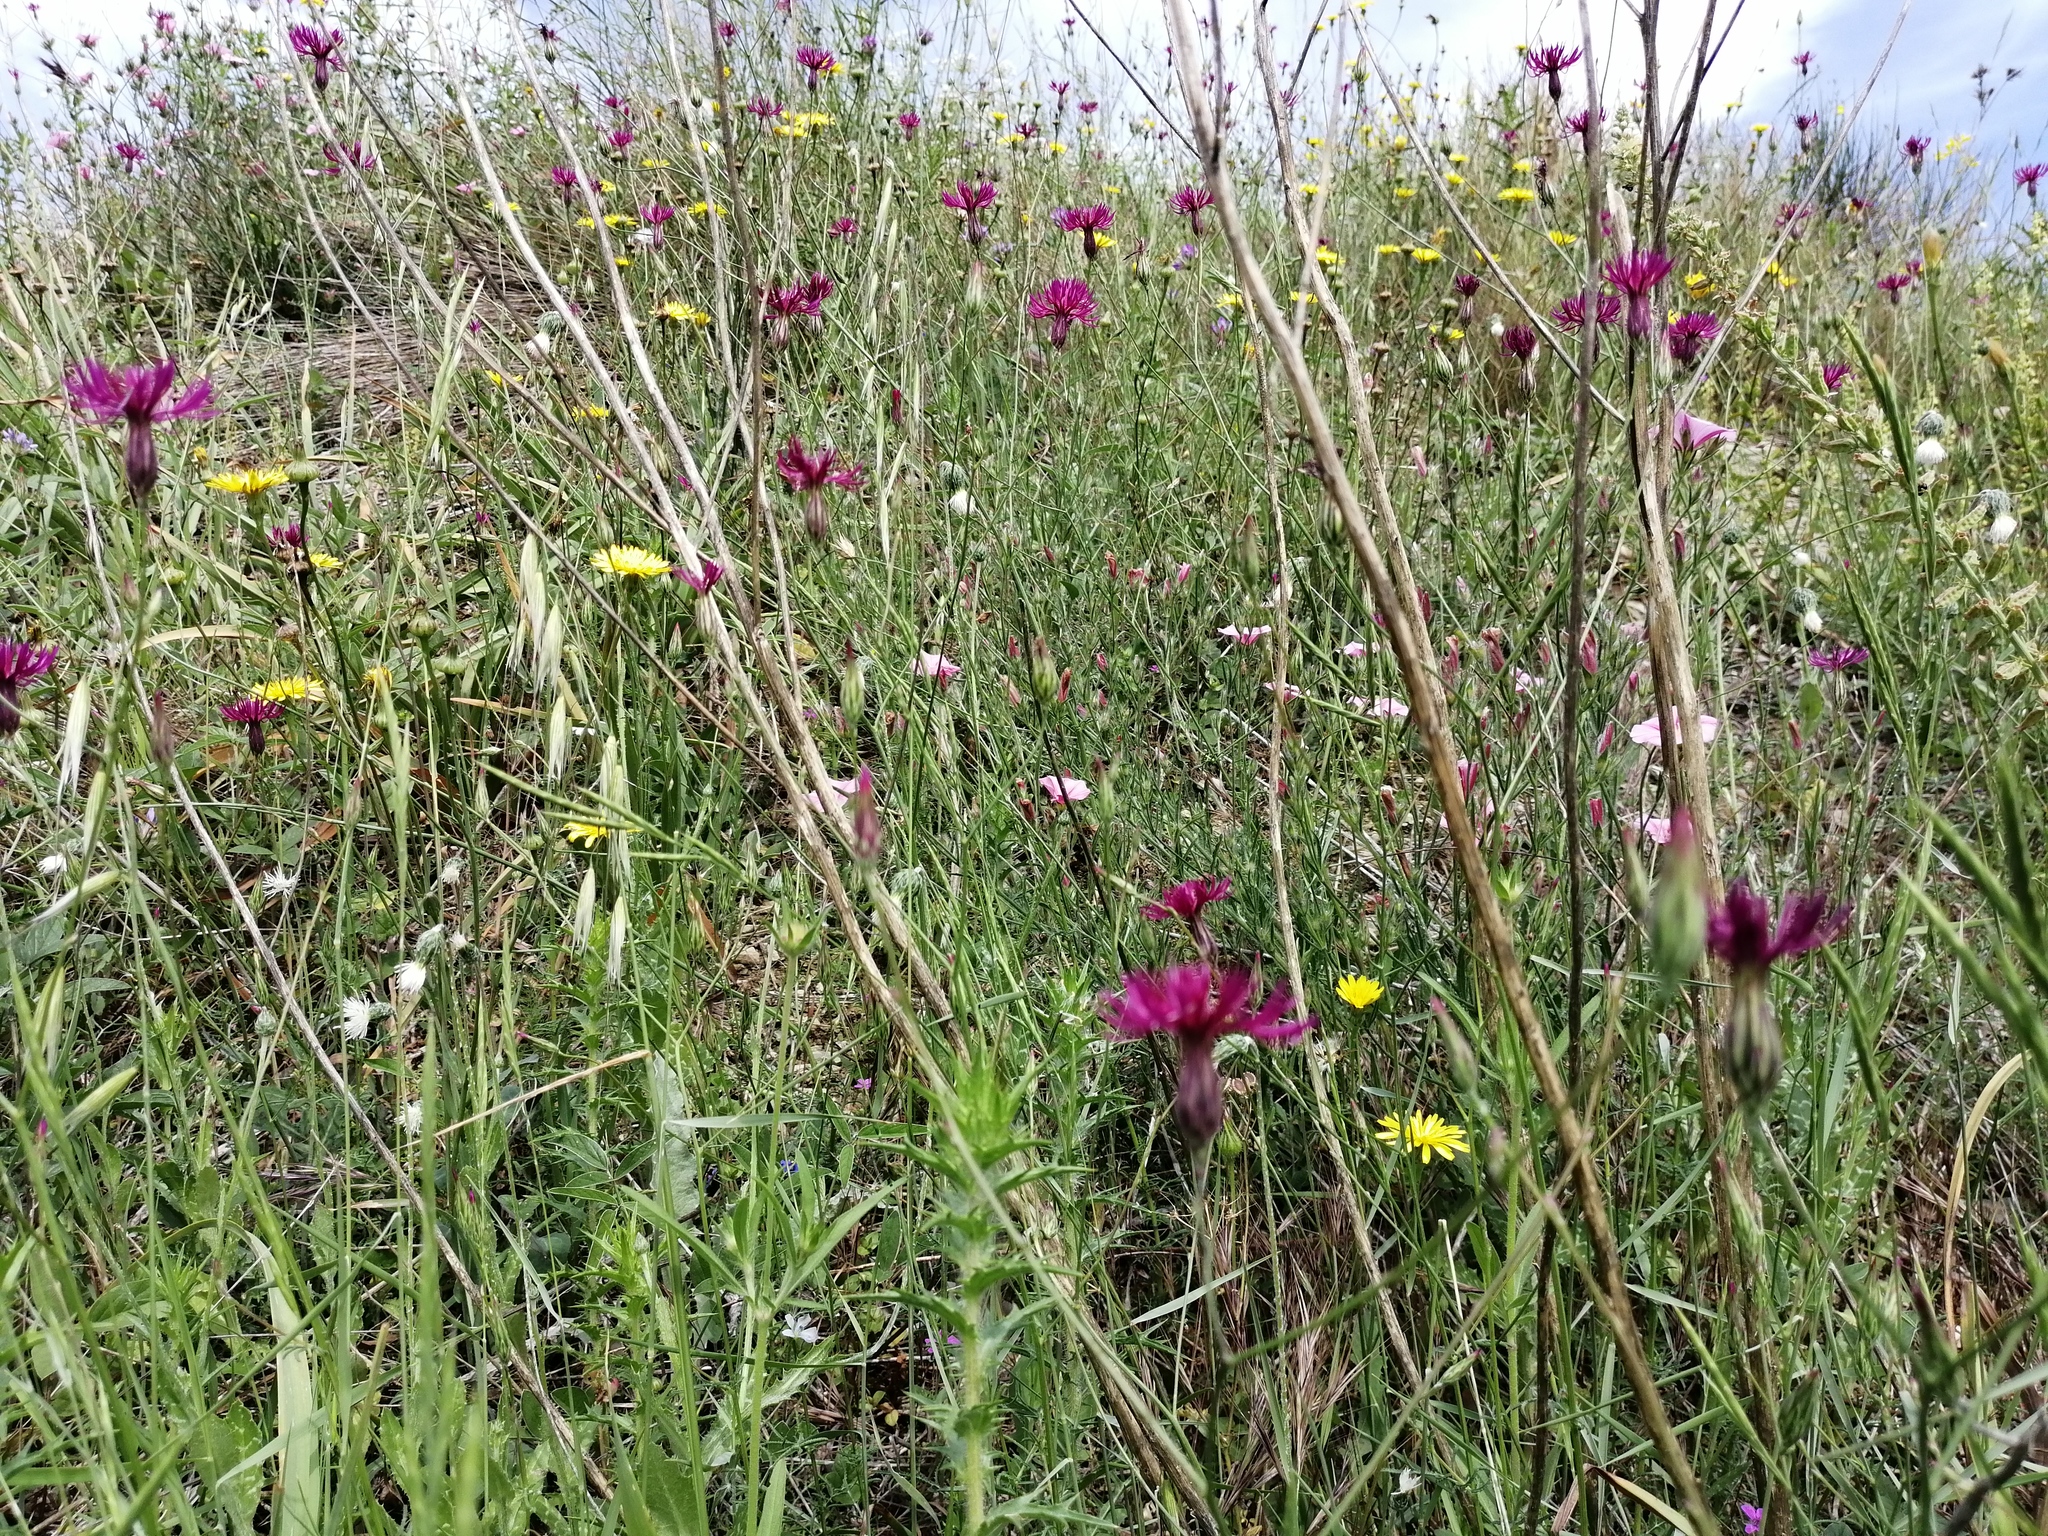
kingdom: Plantae
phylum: Tracheophyta
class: Magnoliopsida
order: Asterales
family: Asteraceae
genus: Crupina
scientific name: Crupina crupinastrum
